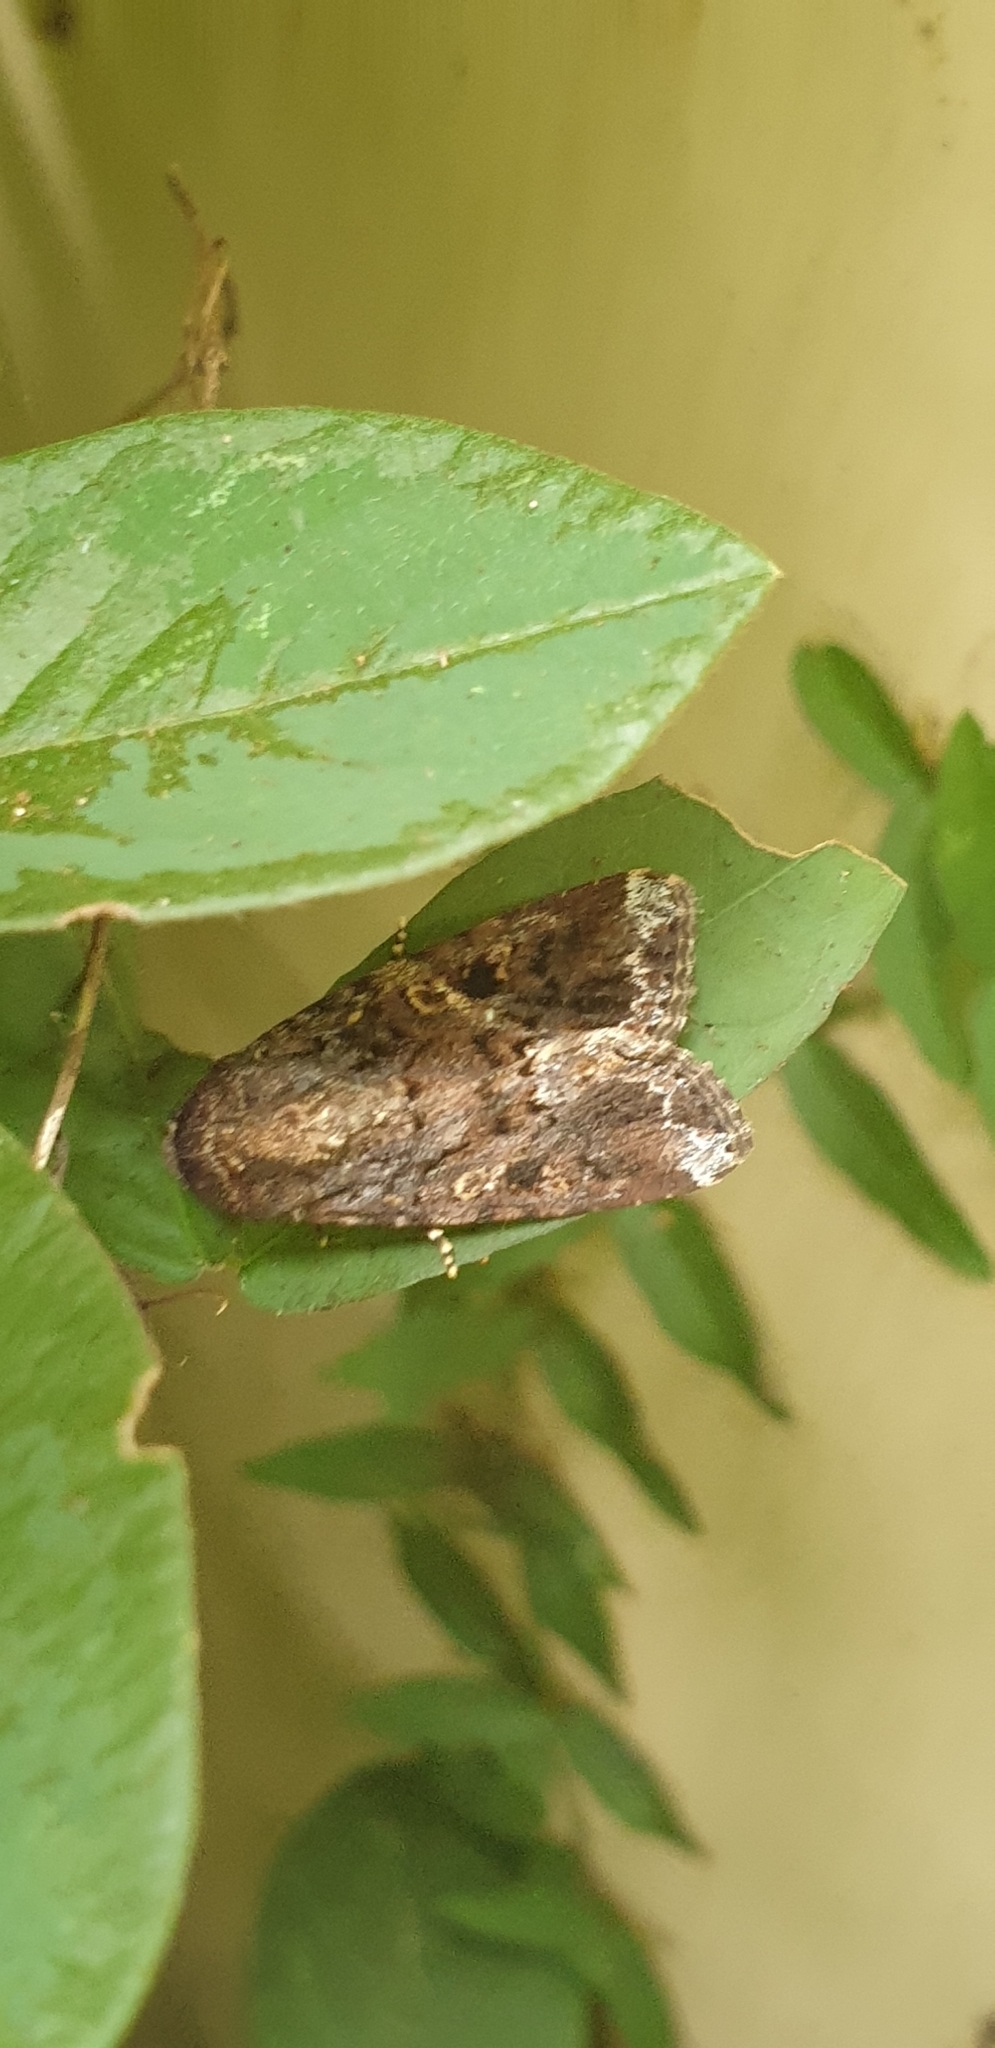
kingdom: Animalia
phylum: Arthropoda
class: Insecta
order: Lepidoptera
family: Nymphalidae
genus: Melanitis
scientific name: Melanitis leda
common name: Twilight brown
